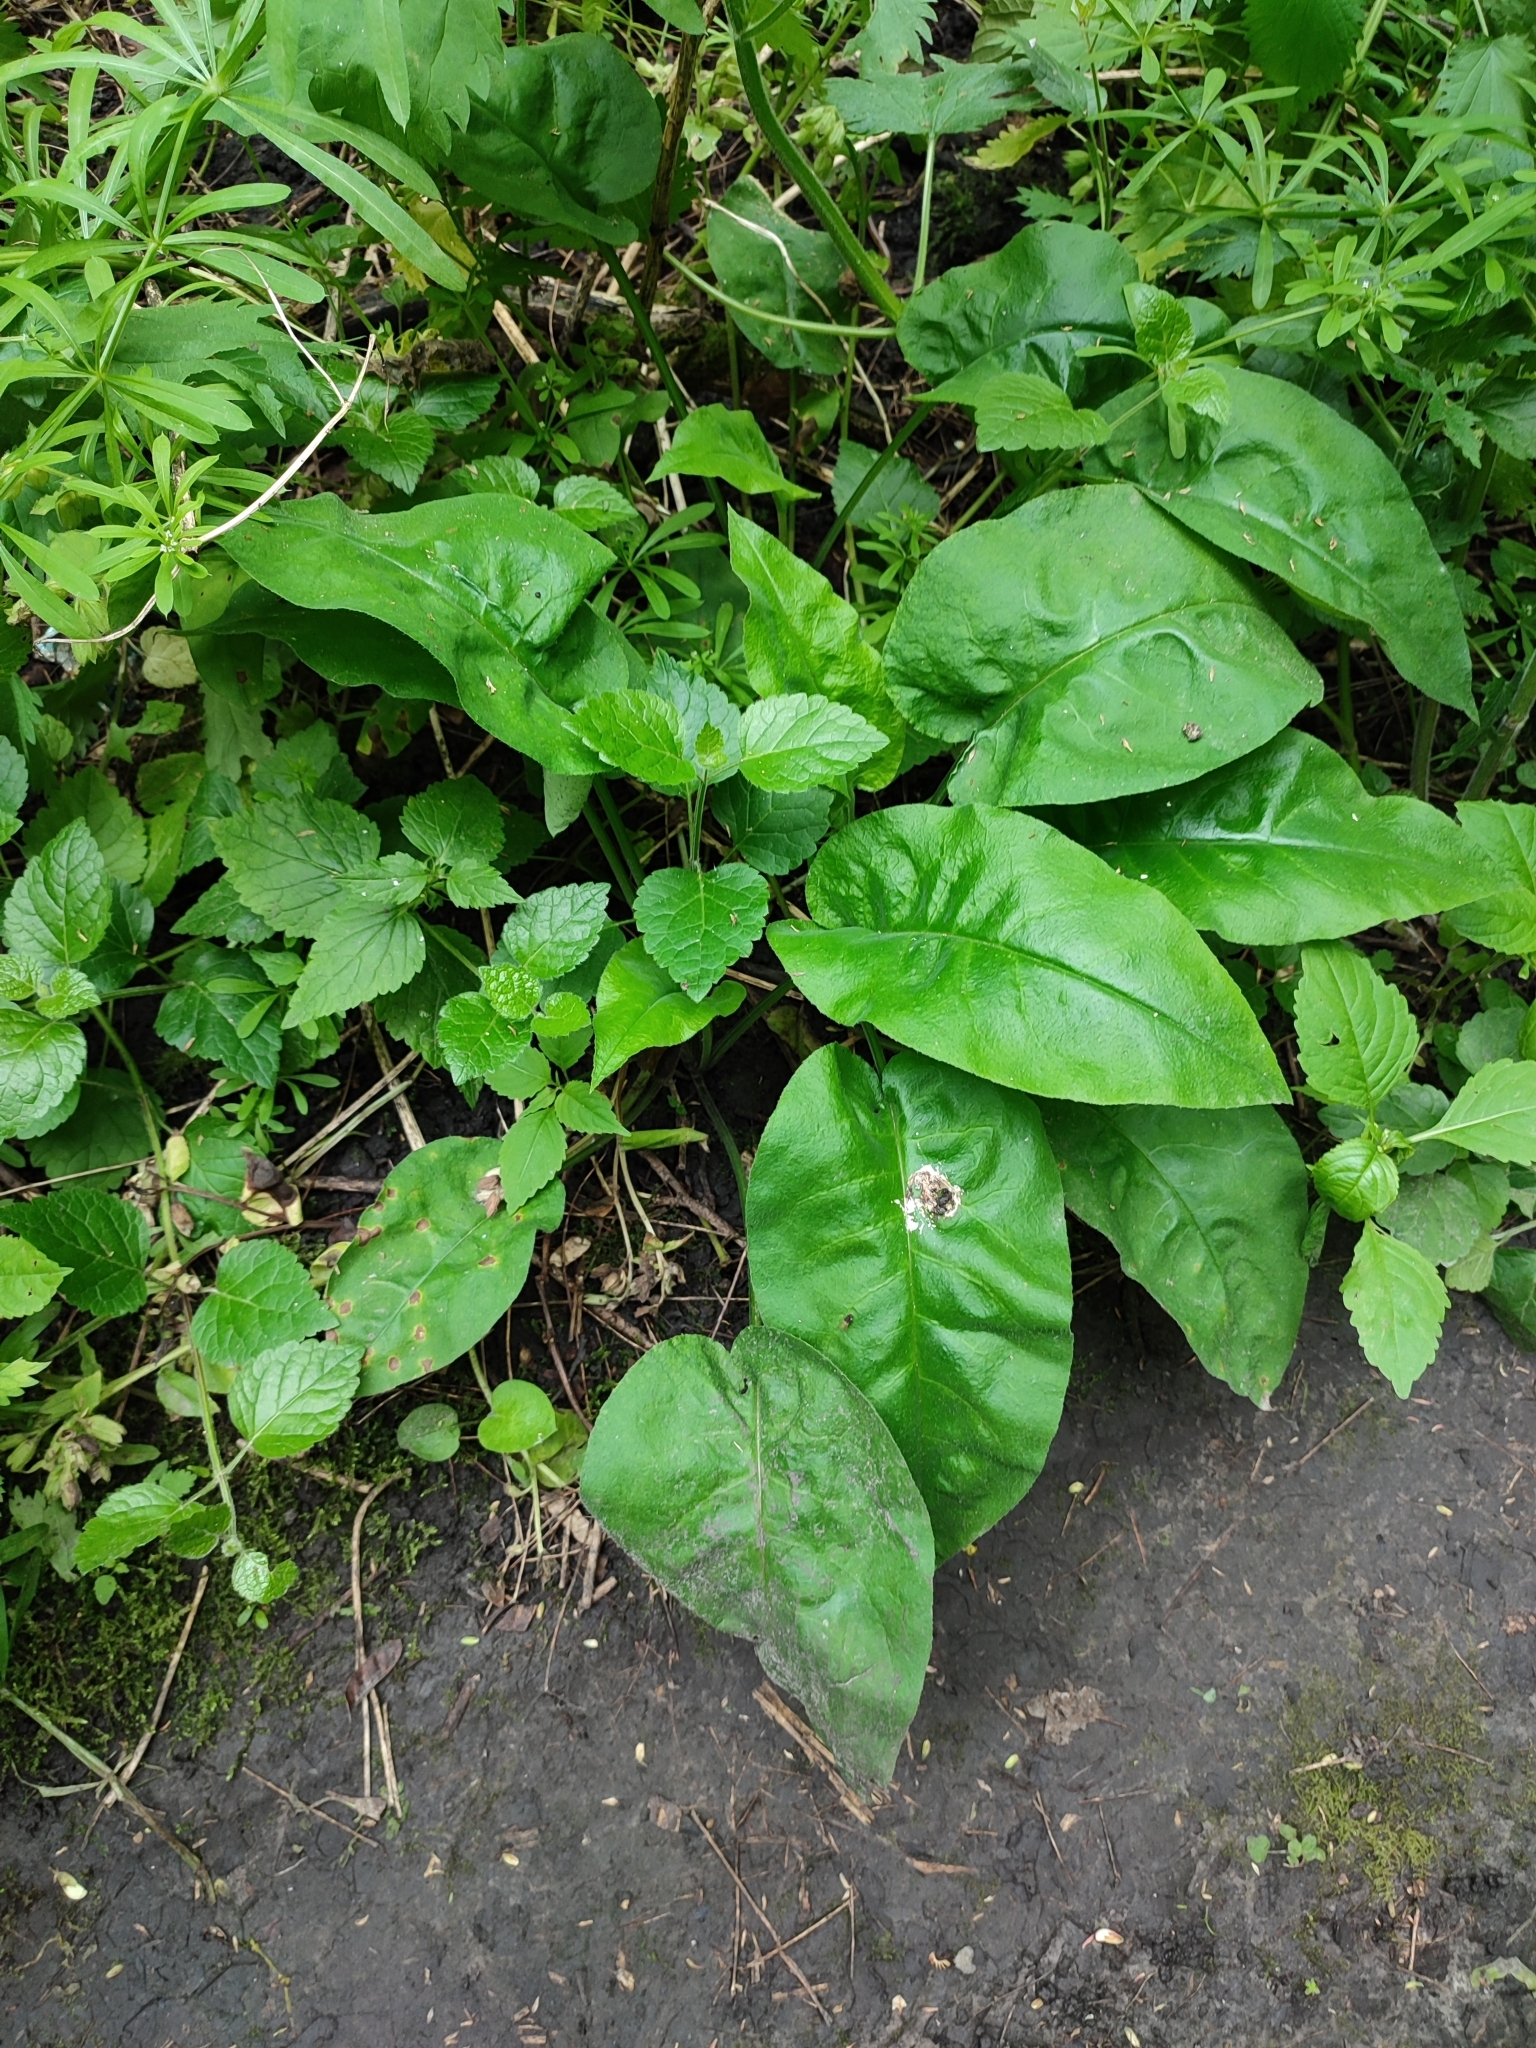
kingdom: Plantae
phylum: Tracheophyta
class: Magnoliopsida
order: Boraginales
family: Boraginaceae
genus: Pulmonaria
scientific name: Pulmonaria obscura
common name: Suffolk lungwort
